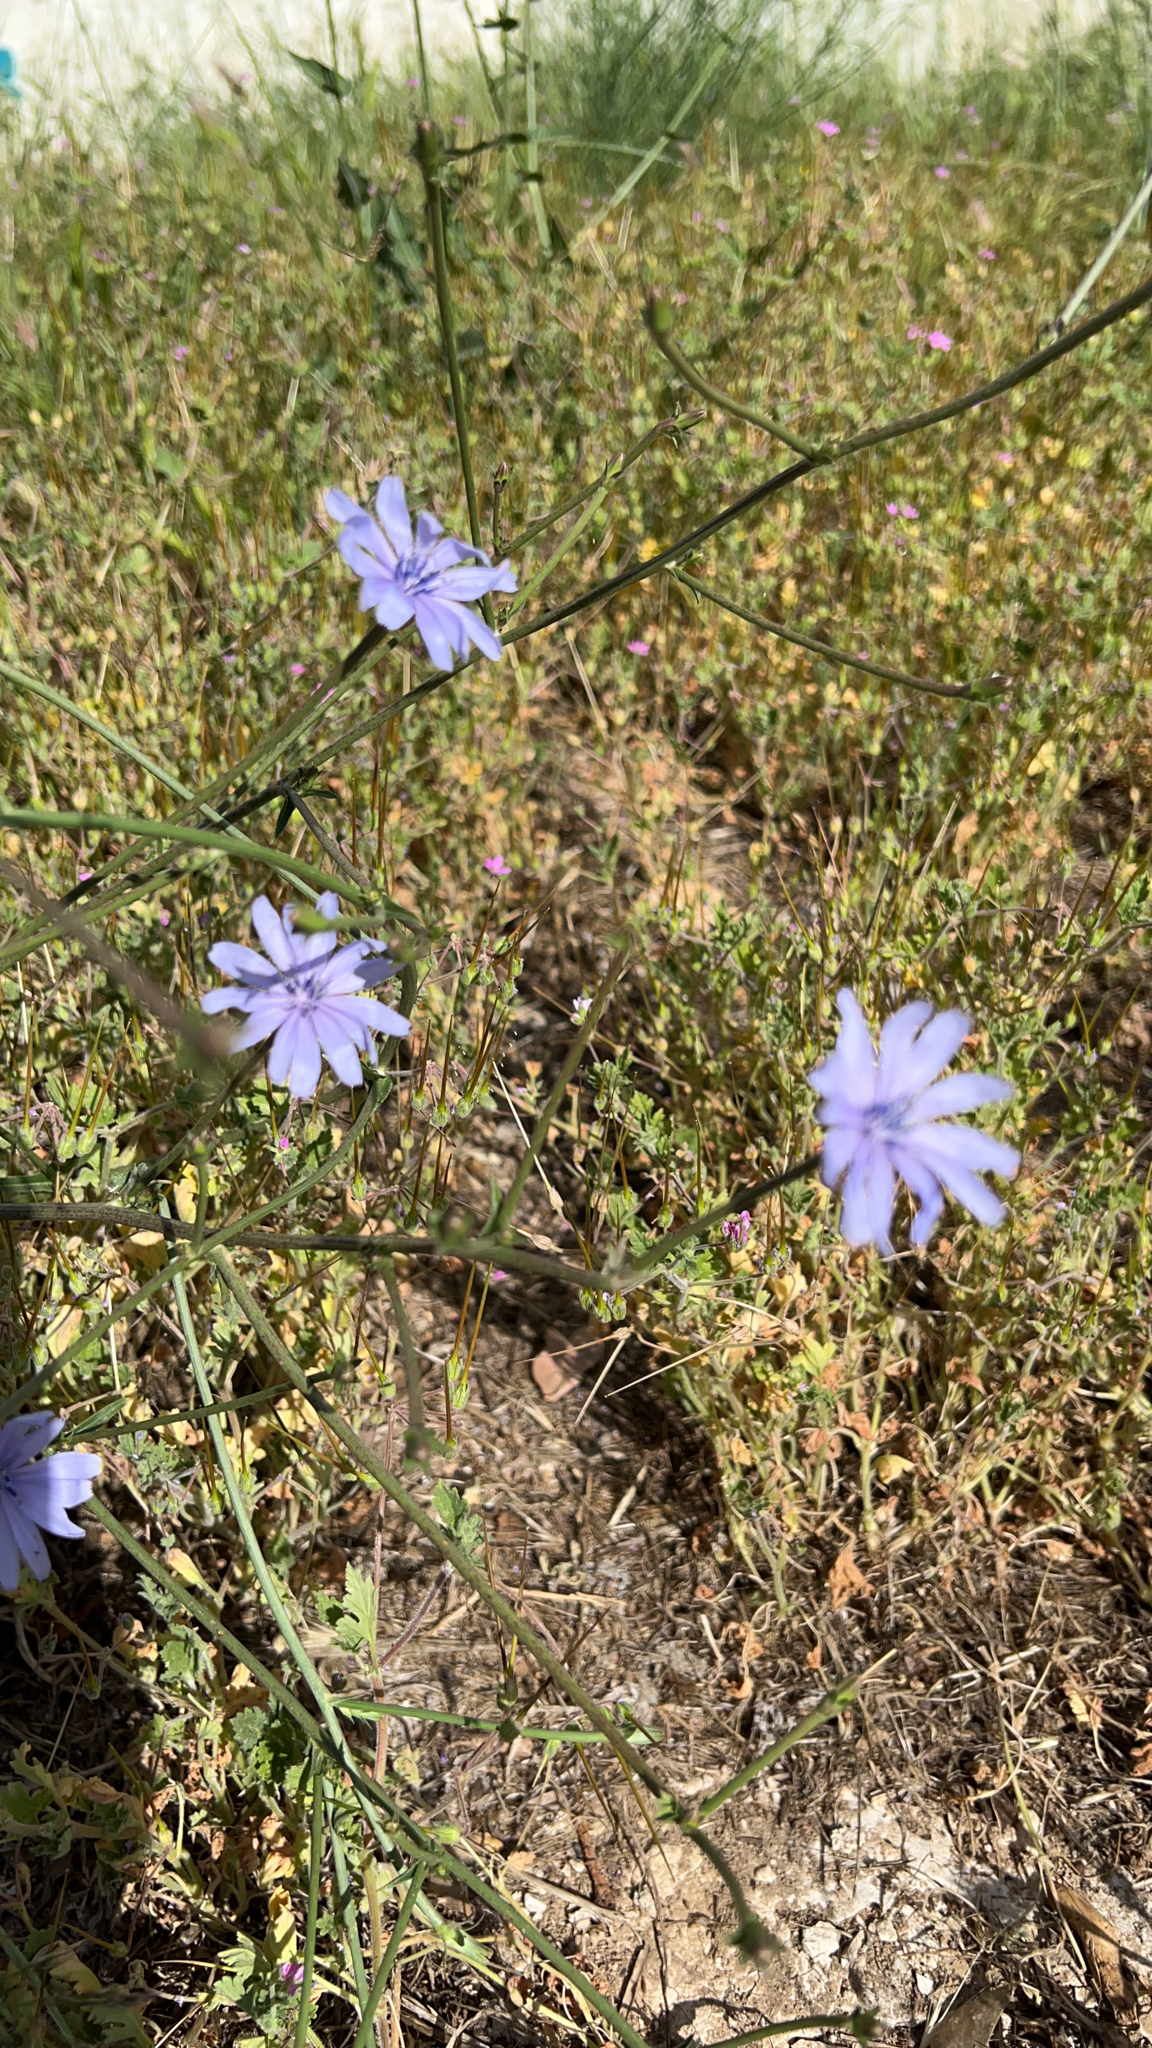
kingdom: Plantae
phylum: Tracheophyta
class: Magnoliopsida
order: Asterales
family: Asteraceae
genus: Cichorium
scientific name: Cichorium intybus
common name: Chicory
